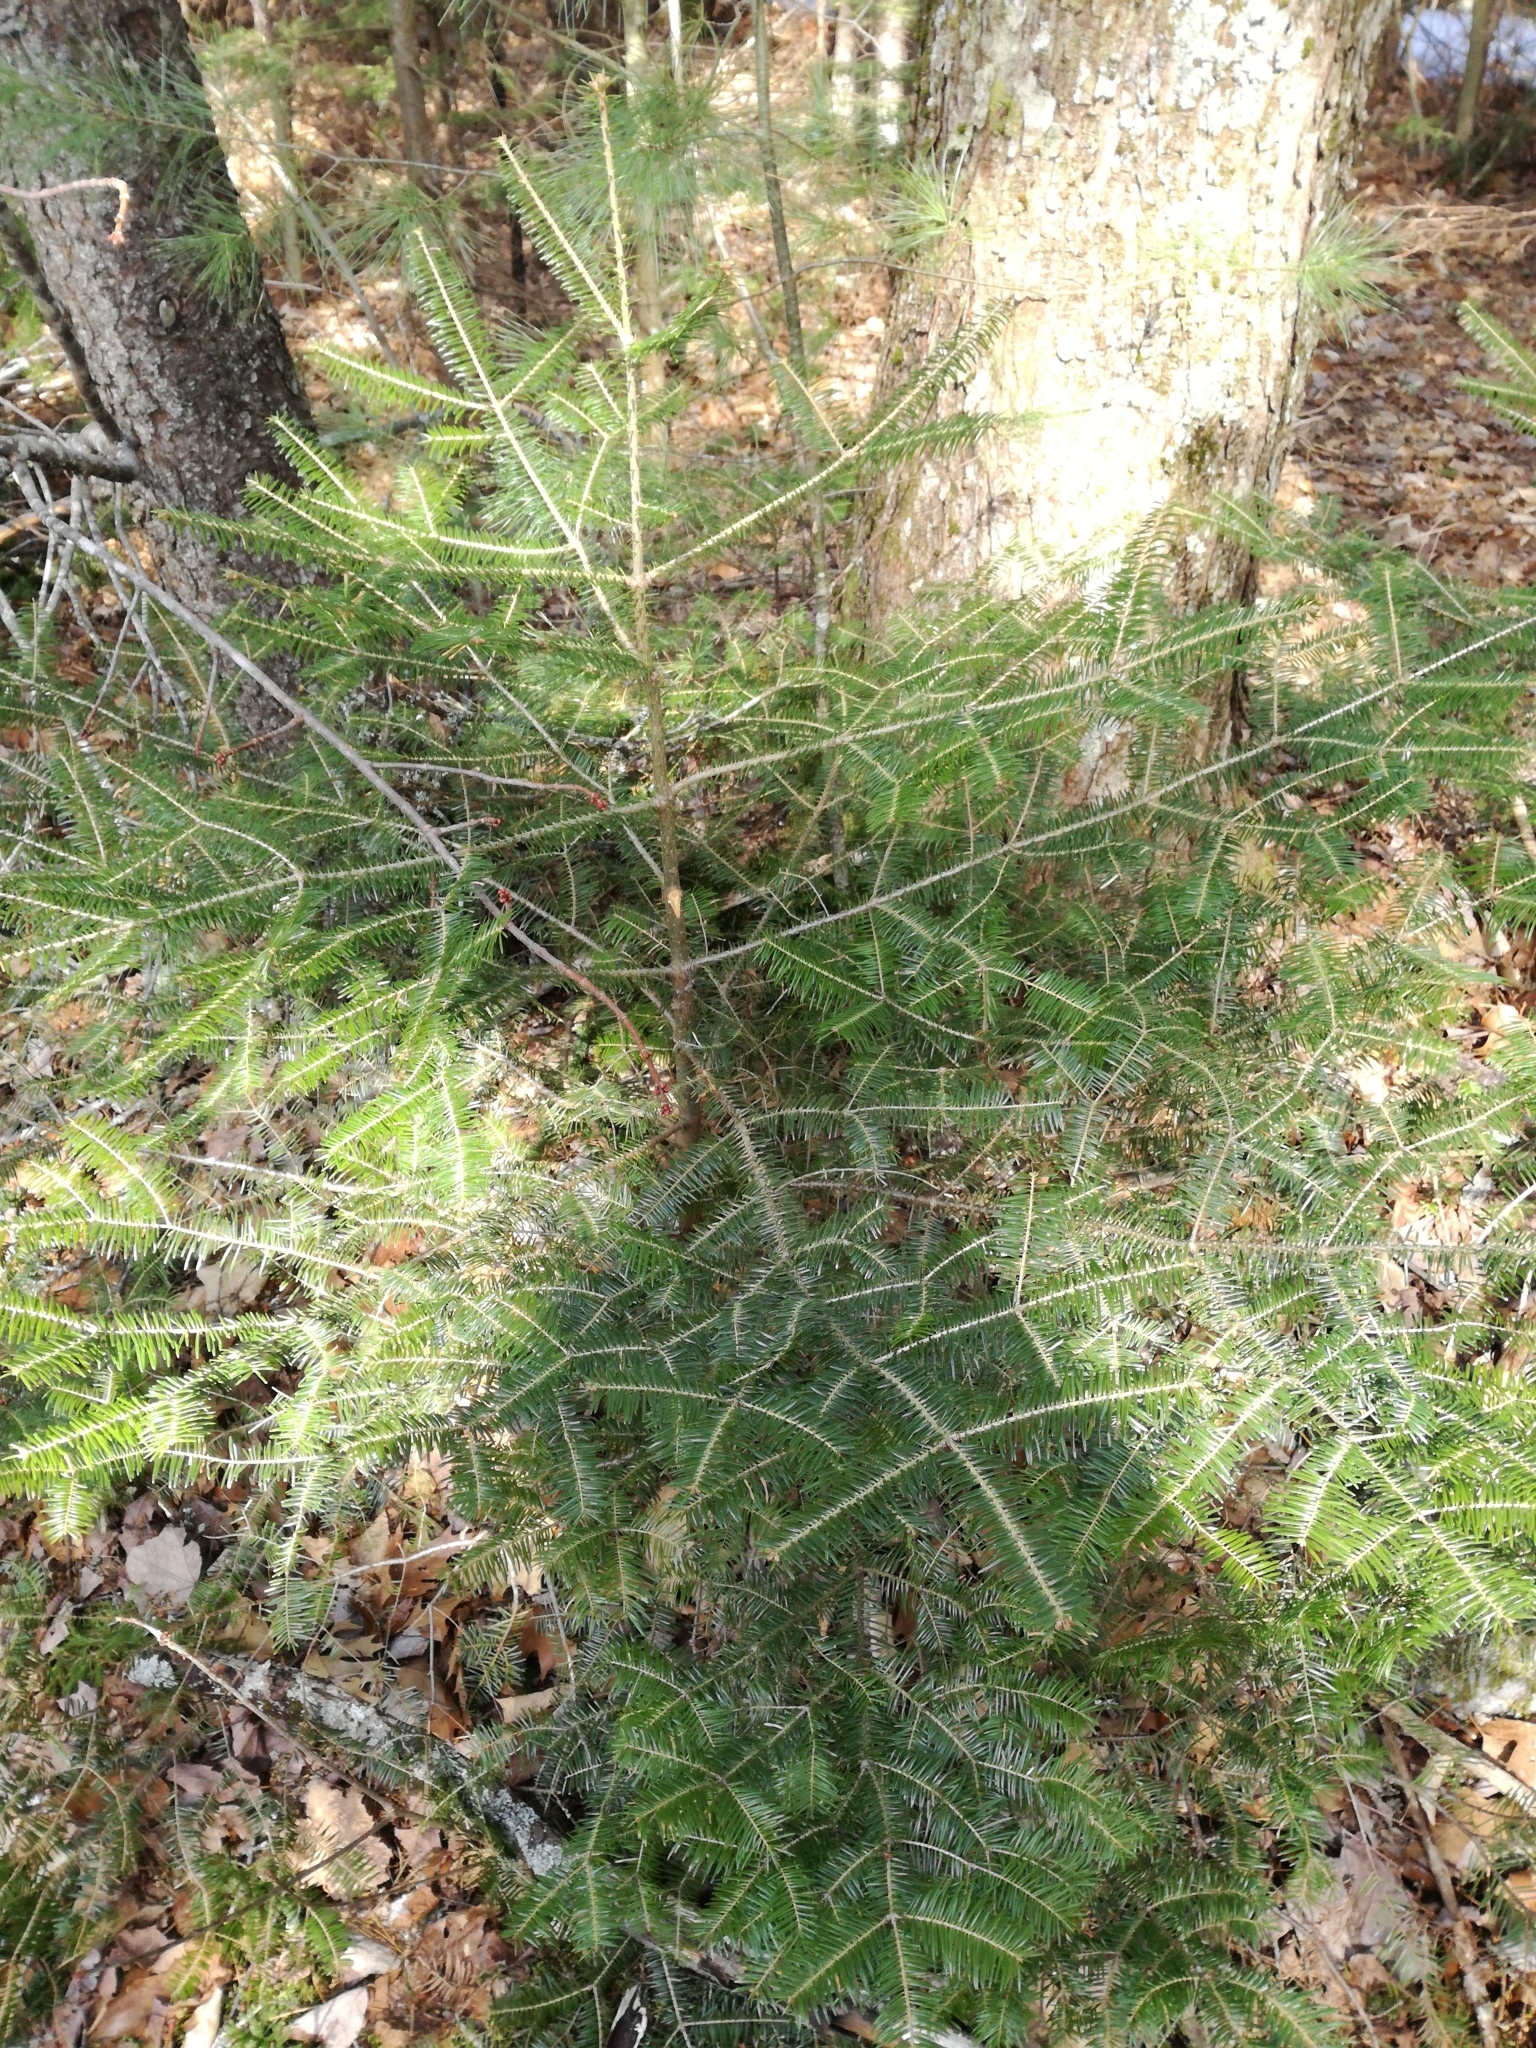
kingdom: Plantae
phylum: Tracheophyta
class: Pinopsida
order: Pinales
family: Pinaceae
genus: Abies
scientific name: Abies balsamea
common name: Balsam fir
